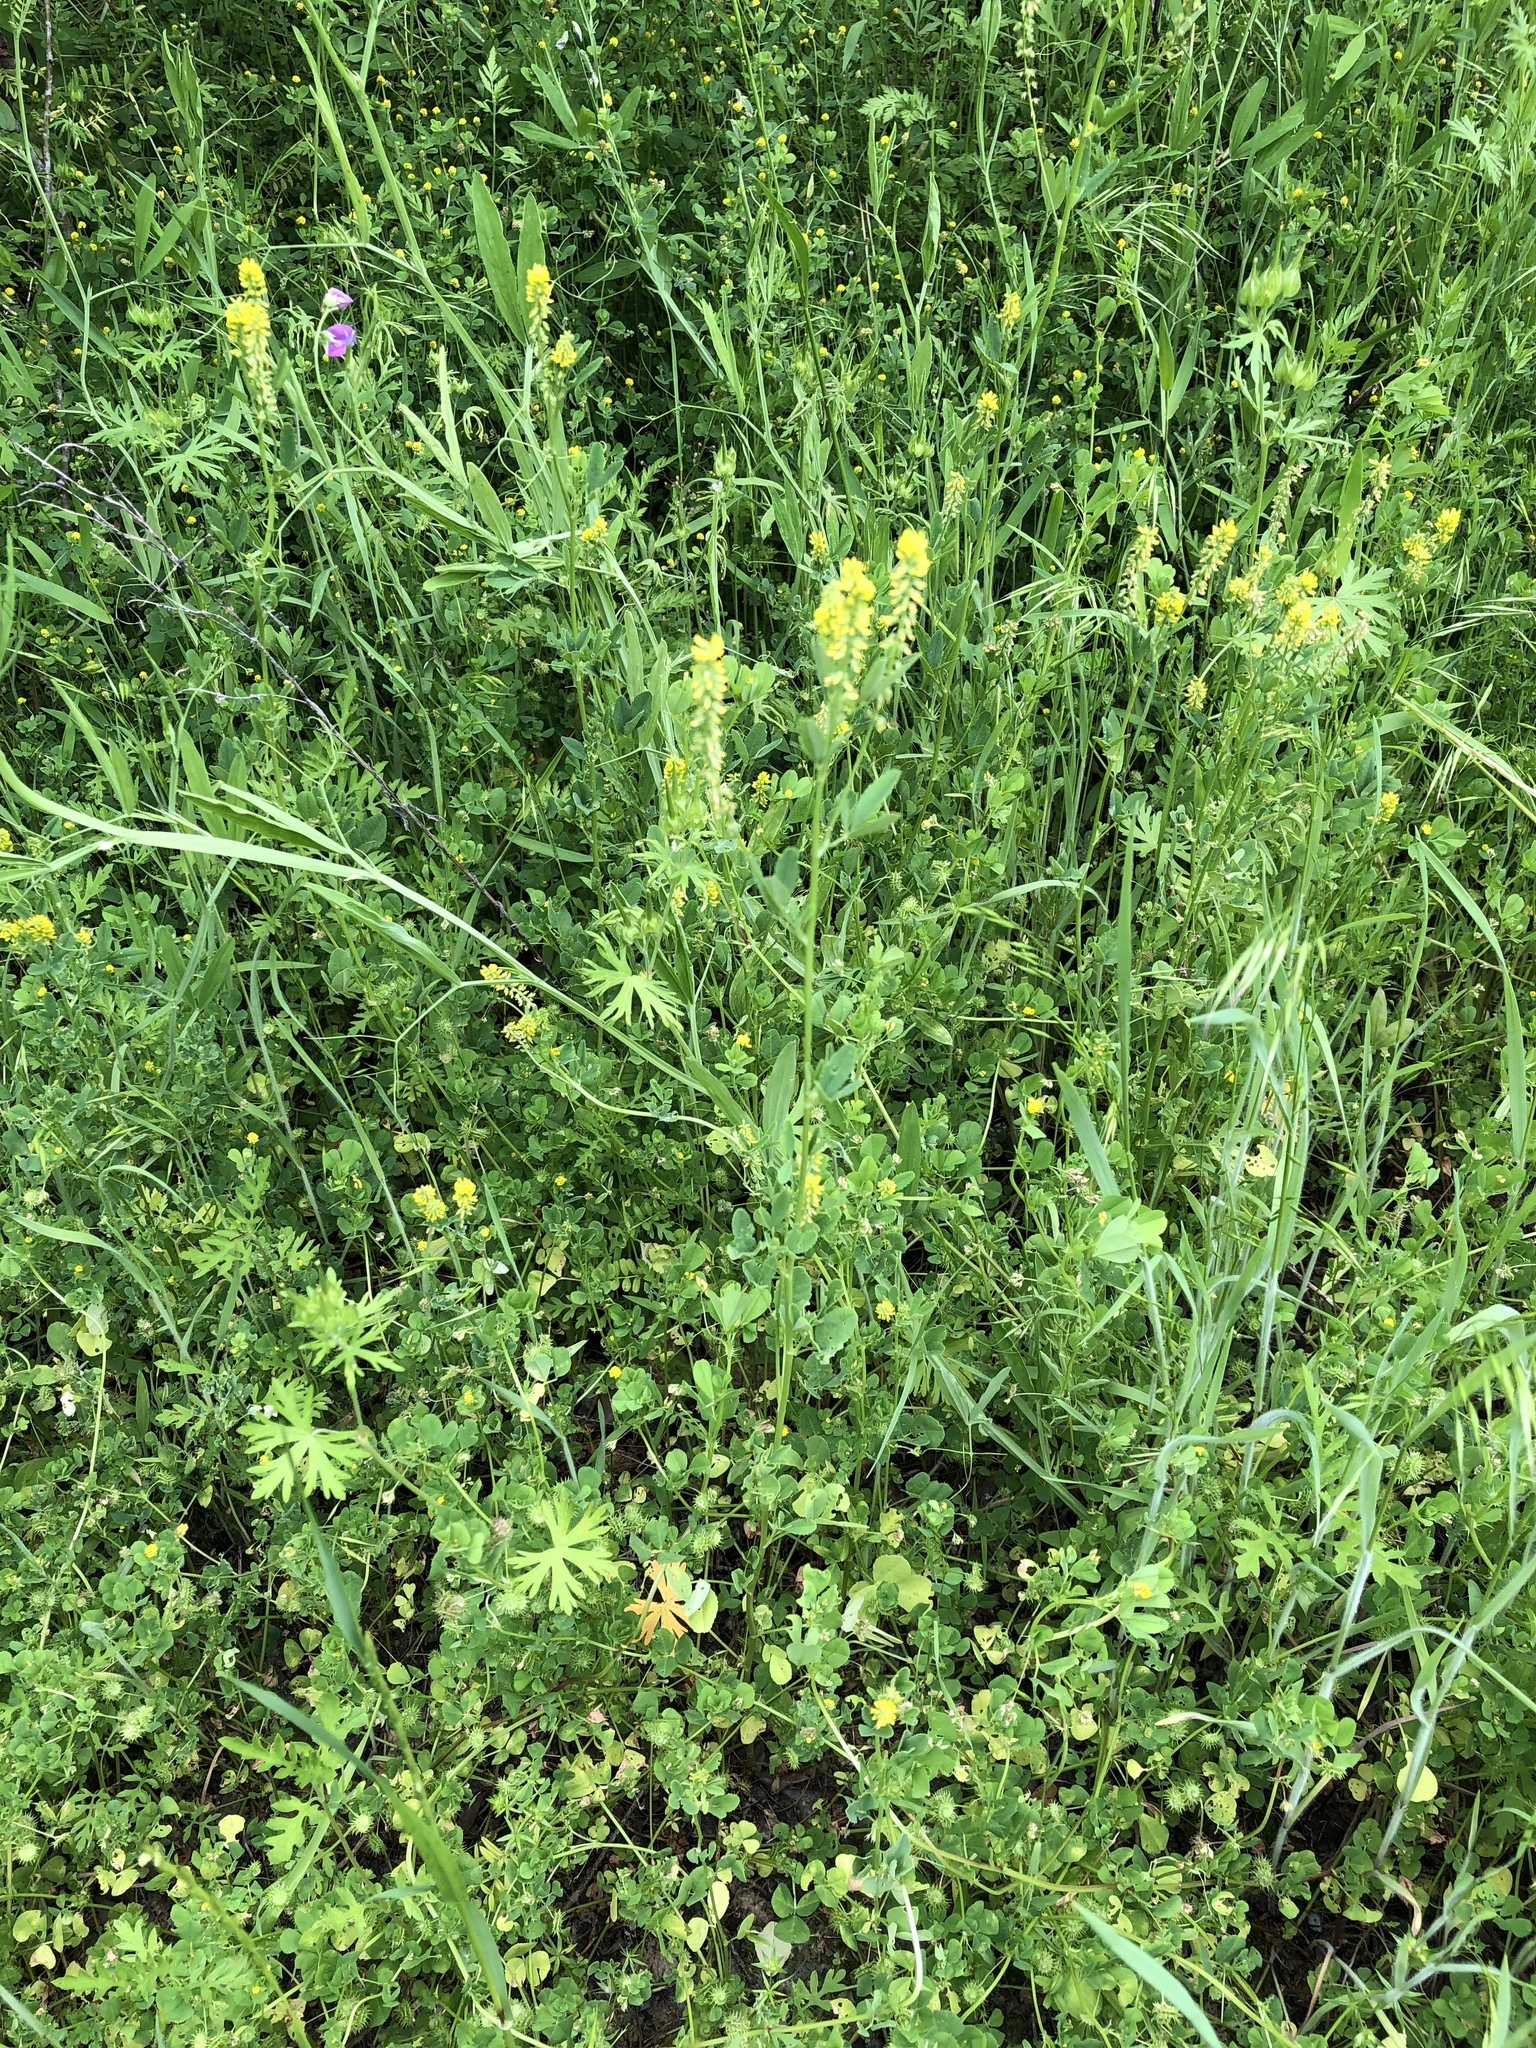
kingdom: Plantae
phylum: Tracheophyta
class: Magnoliopsida
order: Fabales
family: Fabaceae
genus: Melilotus
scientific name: Melilotus indicus
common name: Small melilot
